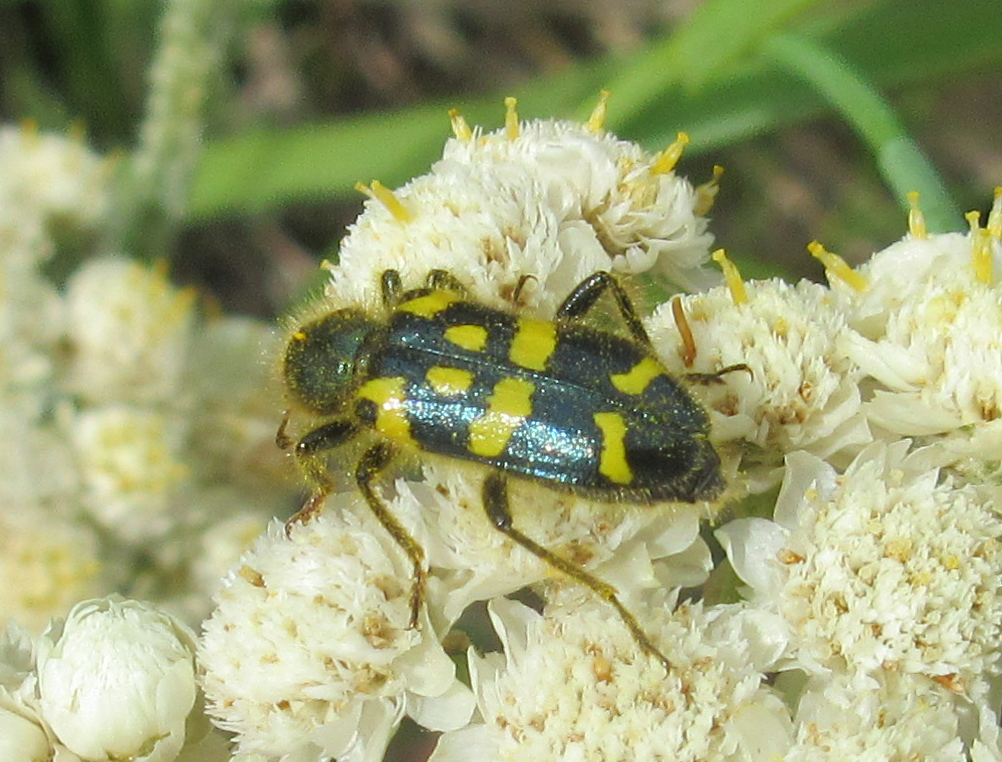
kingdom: Animalia
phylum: Arthropoda
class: Insecta
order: Coleoptera
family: Cleridae
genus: Trichodes
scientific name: Trichodes ornatus
